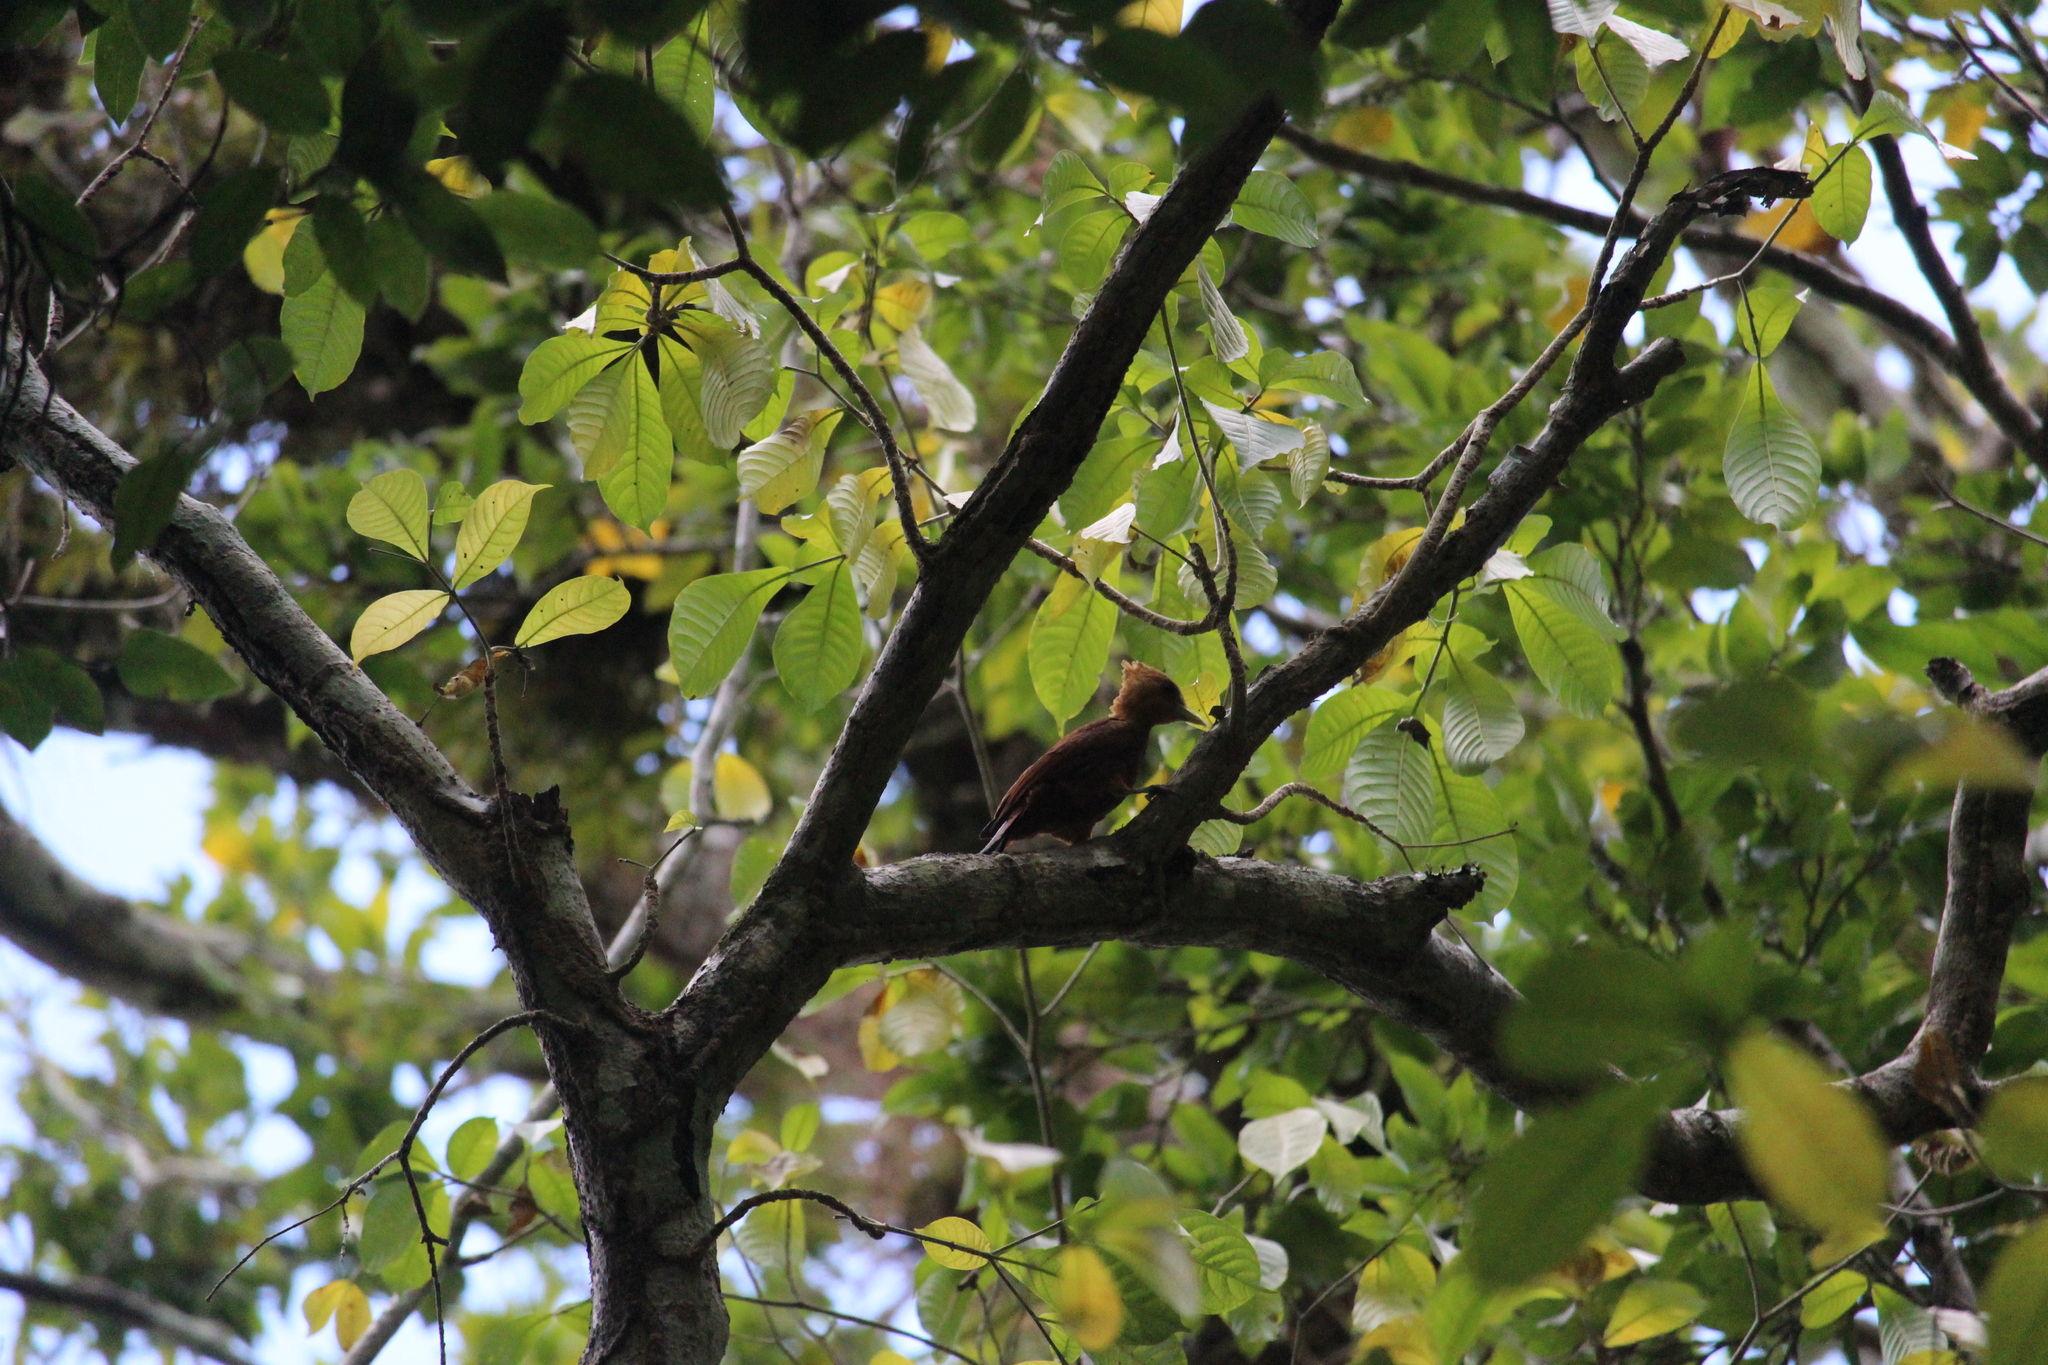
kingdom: Animalia
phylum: Chordata
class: Aves
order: Piciformes
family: Picidae
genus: Celeus
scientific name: Celeus castaneus
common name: Chestnut-colored woodpecker
